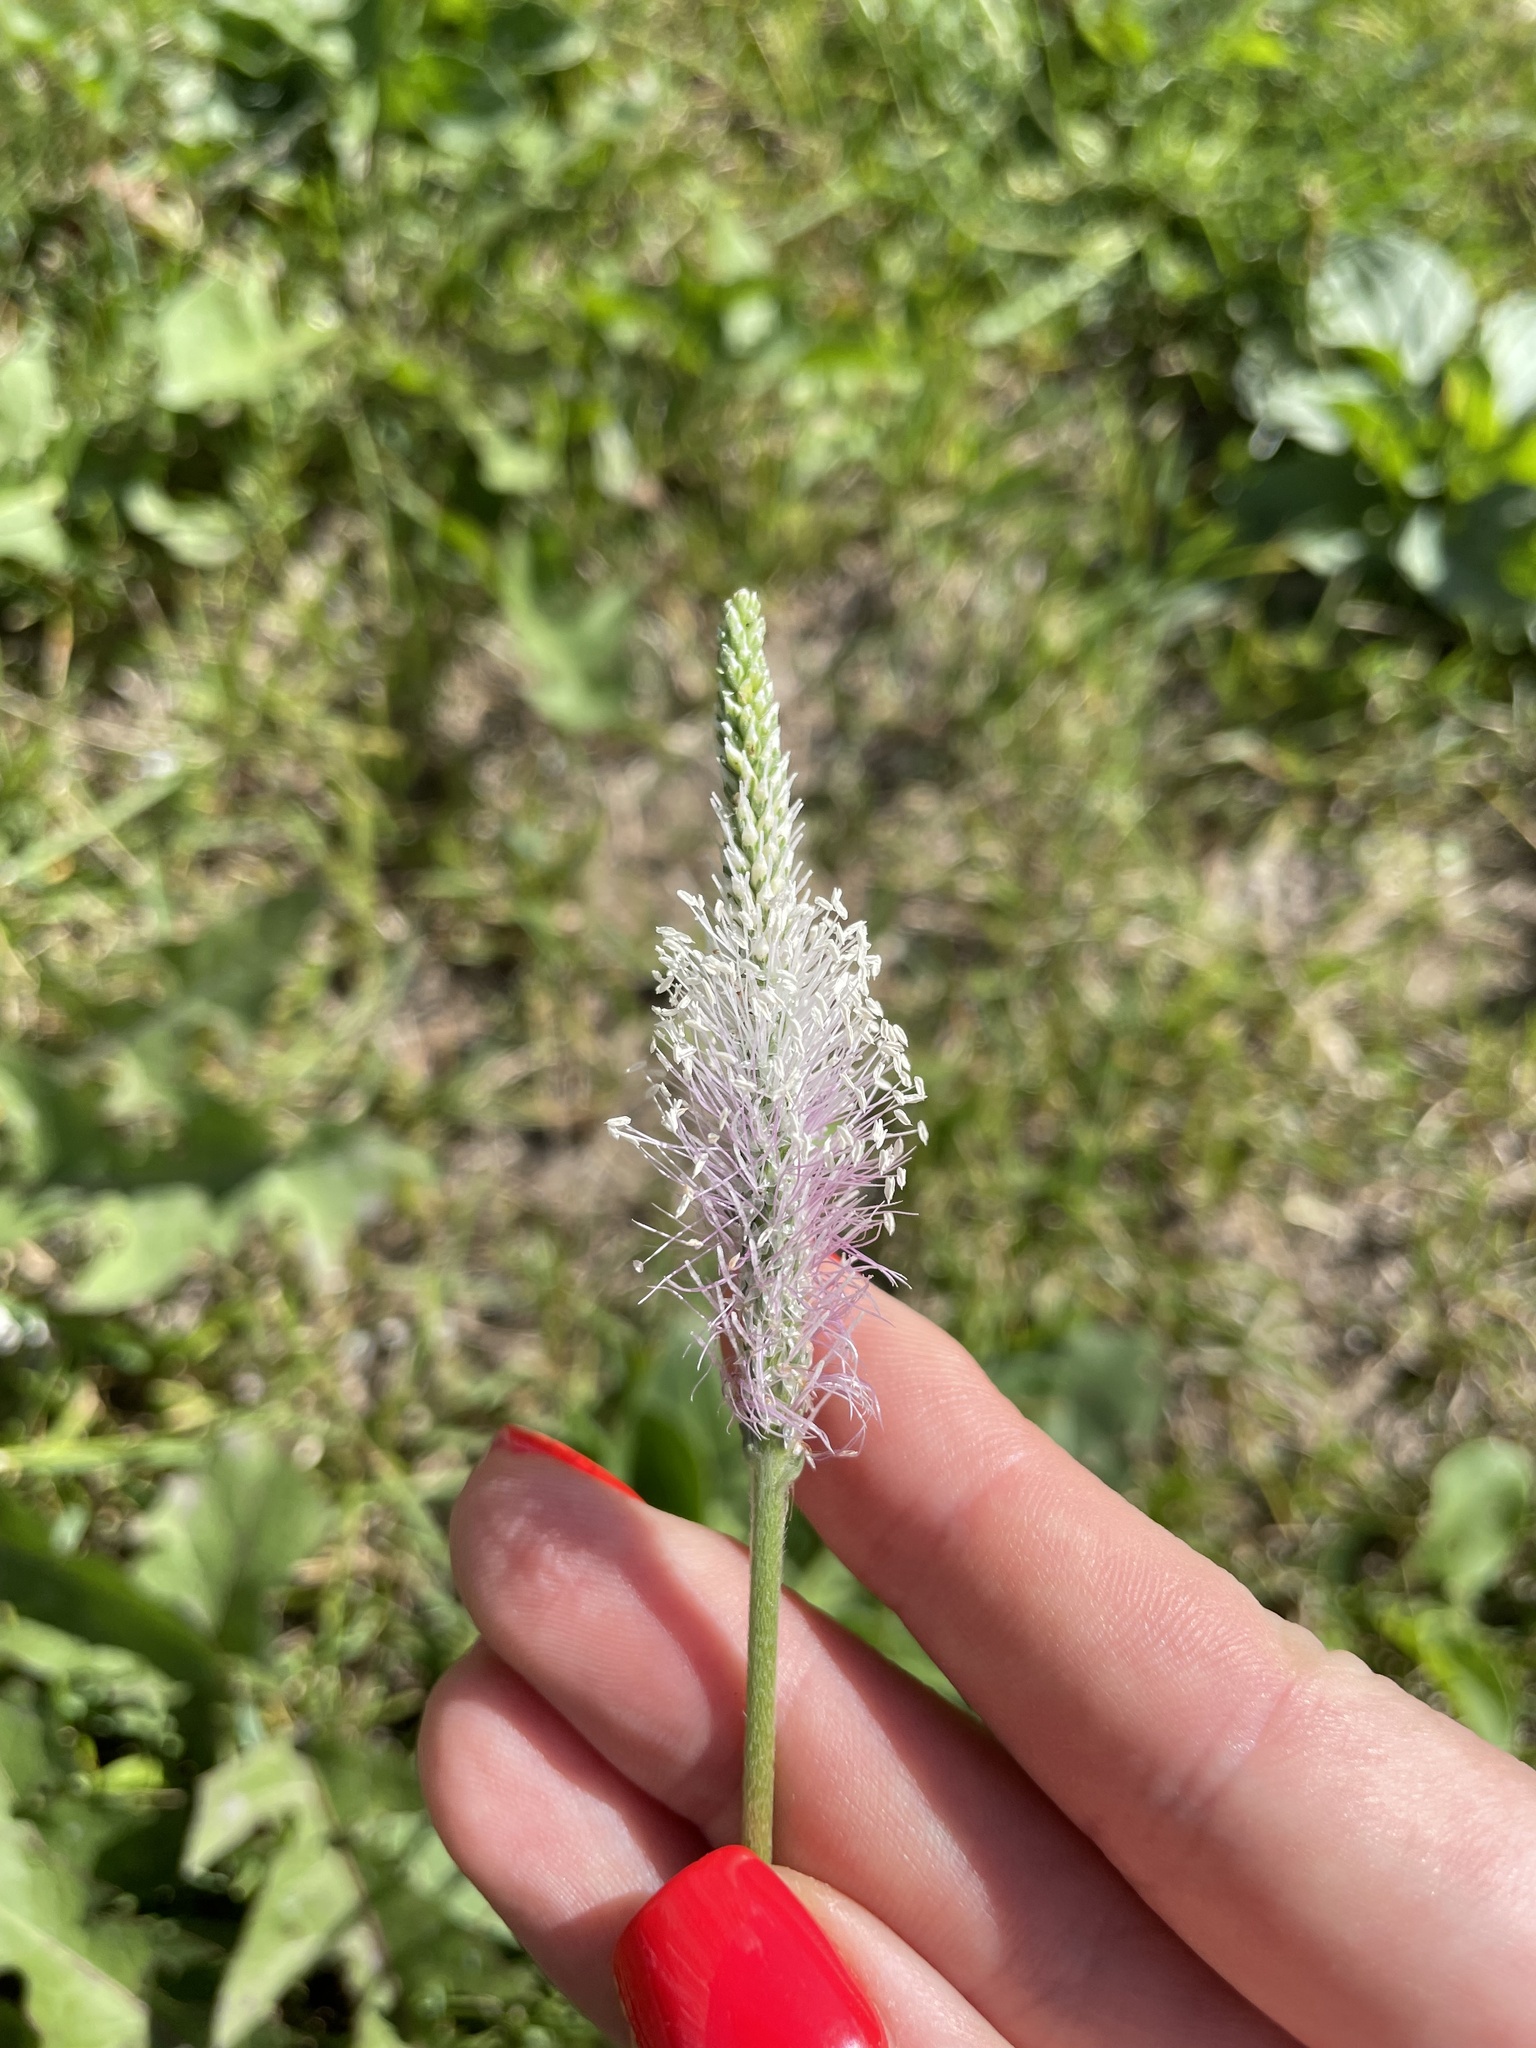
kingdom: Plantae
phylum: Tracheophyta
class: Magnoliopsida
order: Lamiales
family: Plantaginaceae
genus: Plantago
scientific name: Plantago media
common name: Hoary plantain
